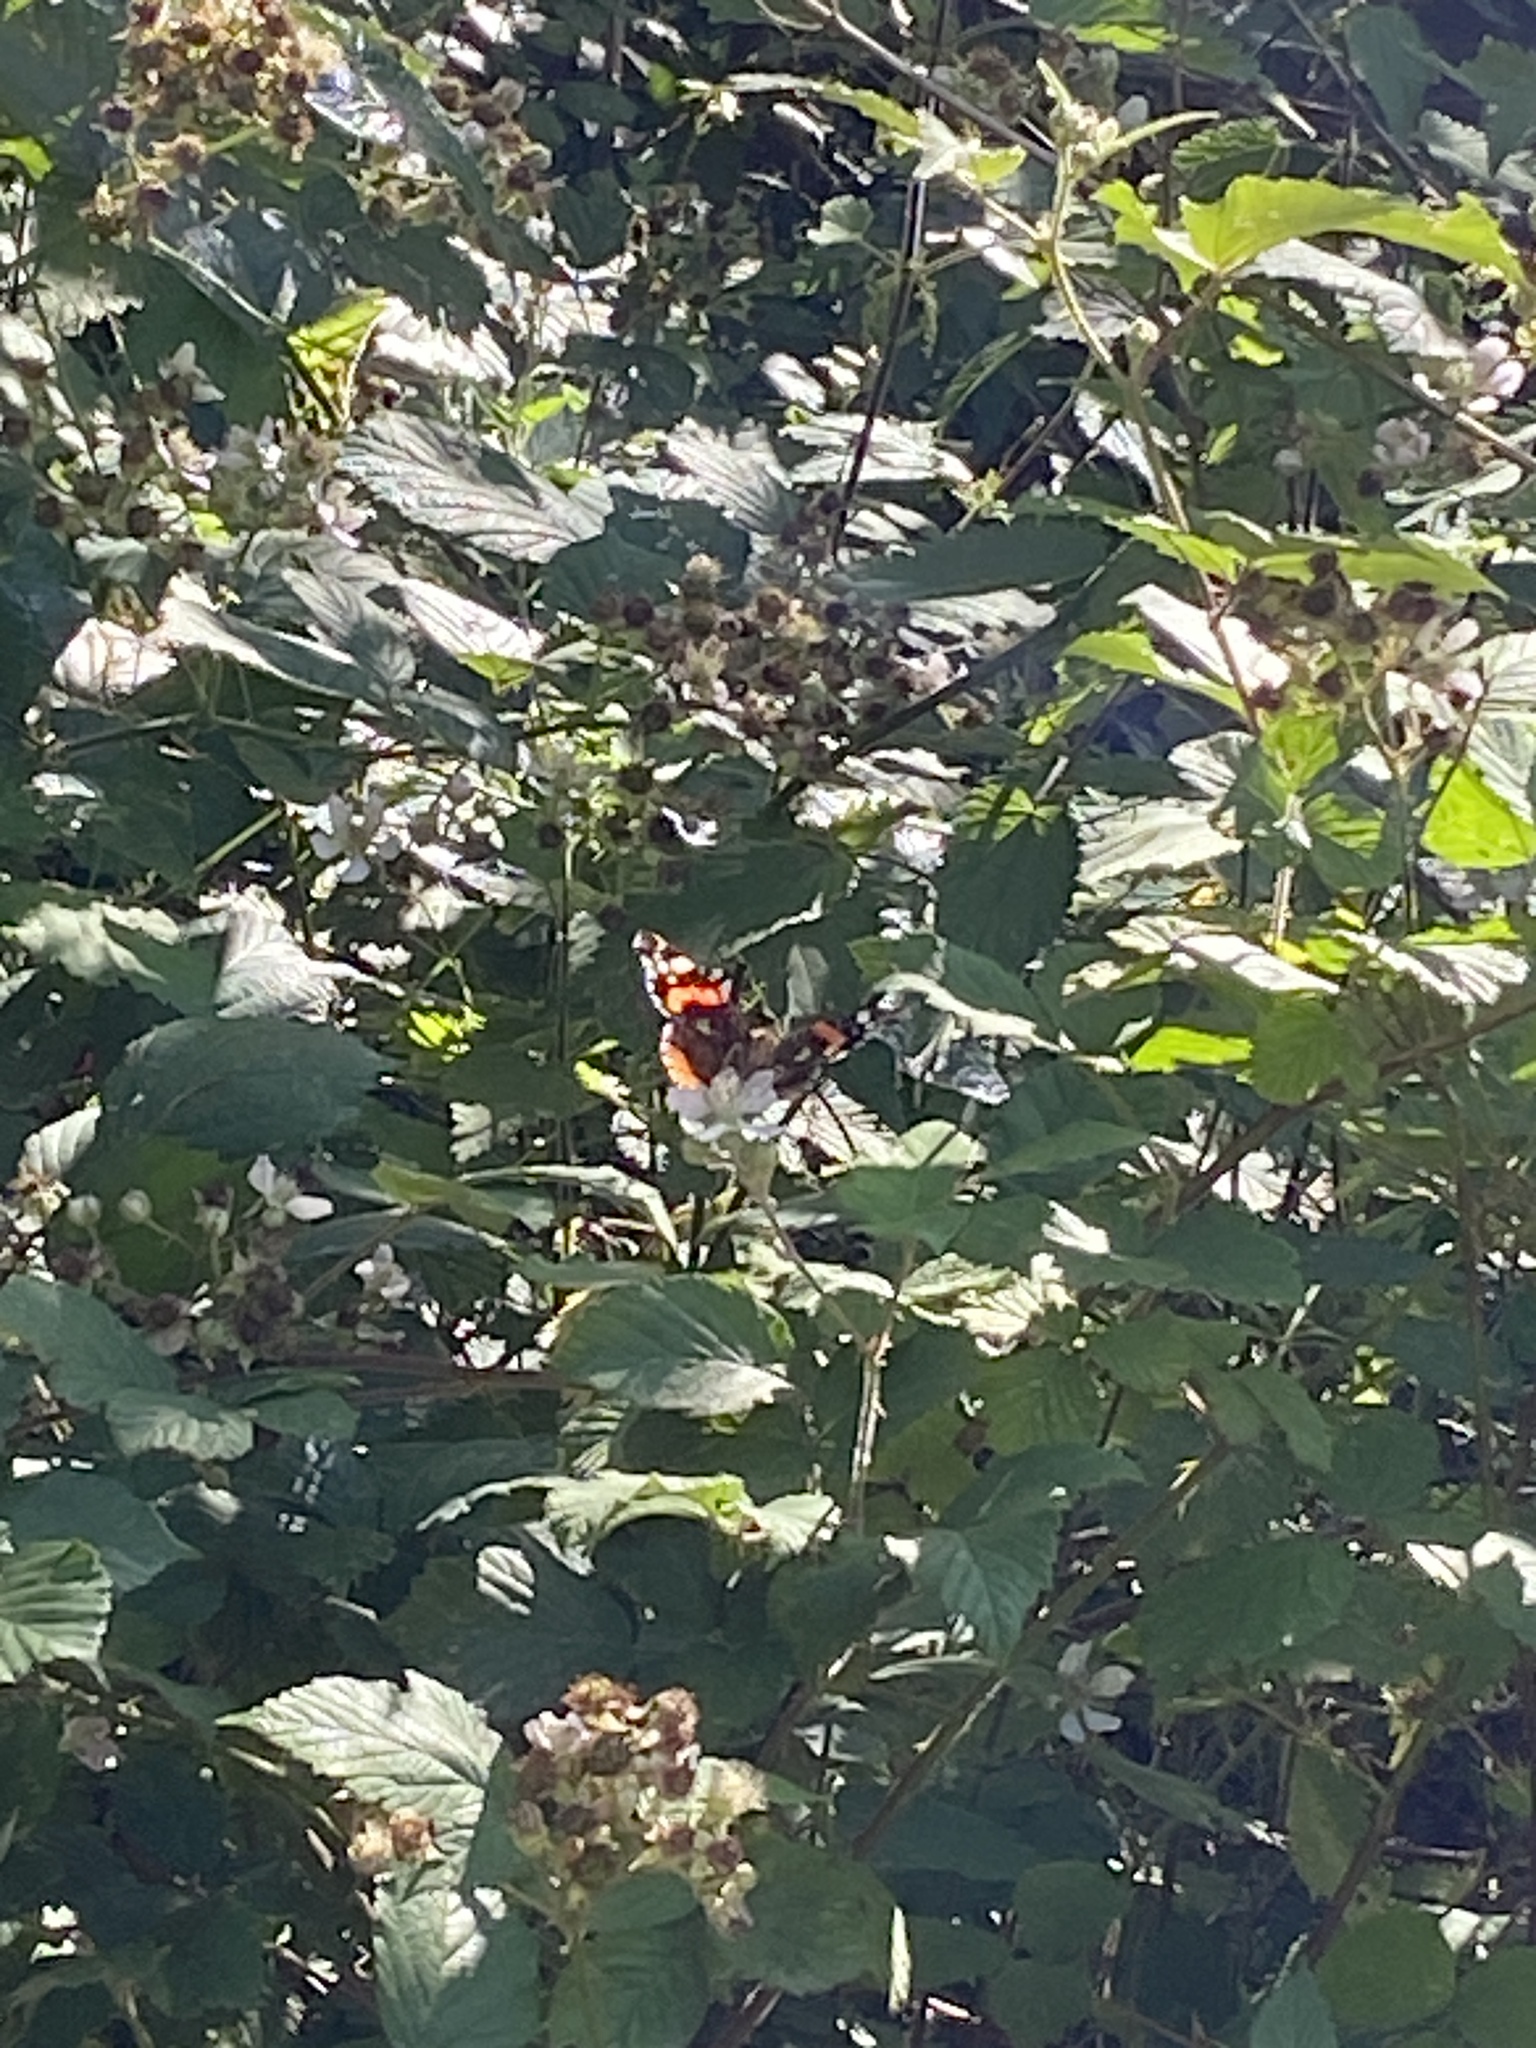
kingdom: Animalia
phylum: Arthropoda
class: Insecta
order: Lepidoptera
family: Nymphalidae
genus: Vanessa
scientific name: Vanessa atalanta
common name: Red admiral
